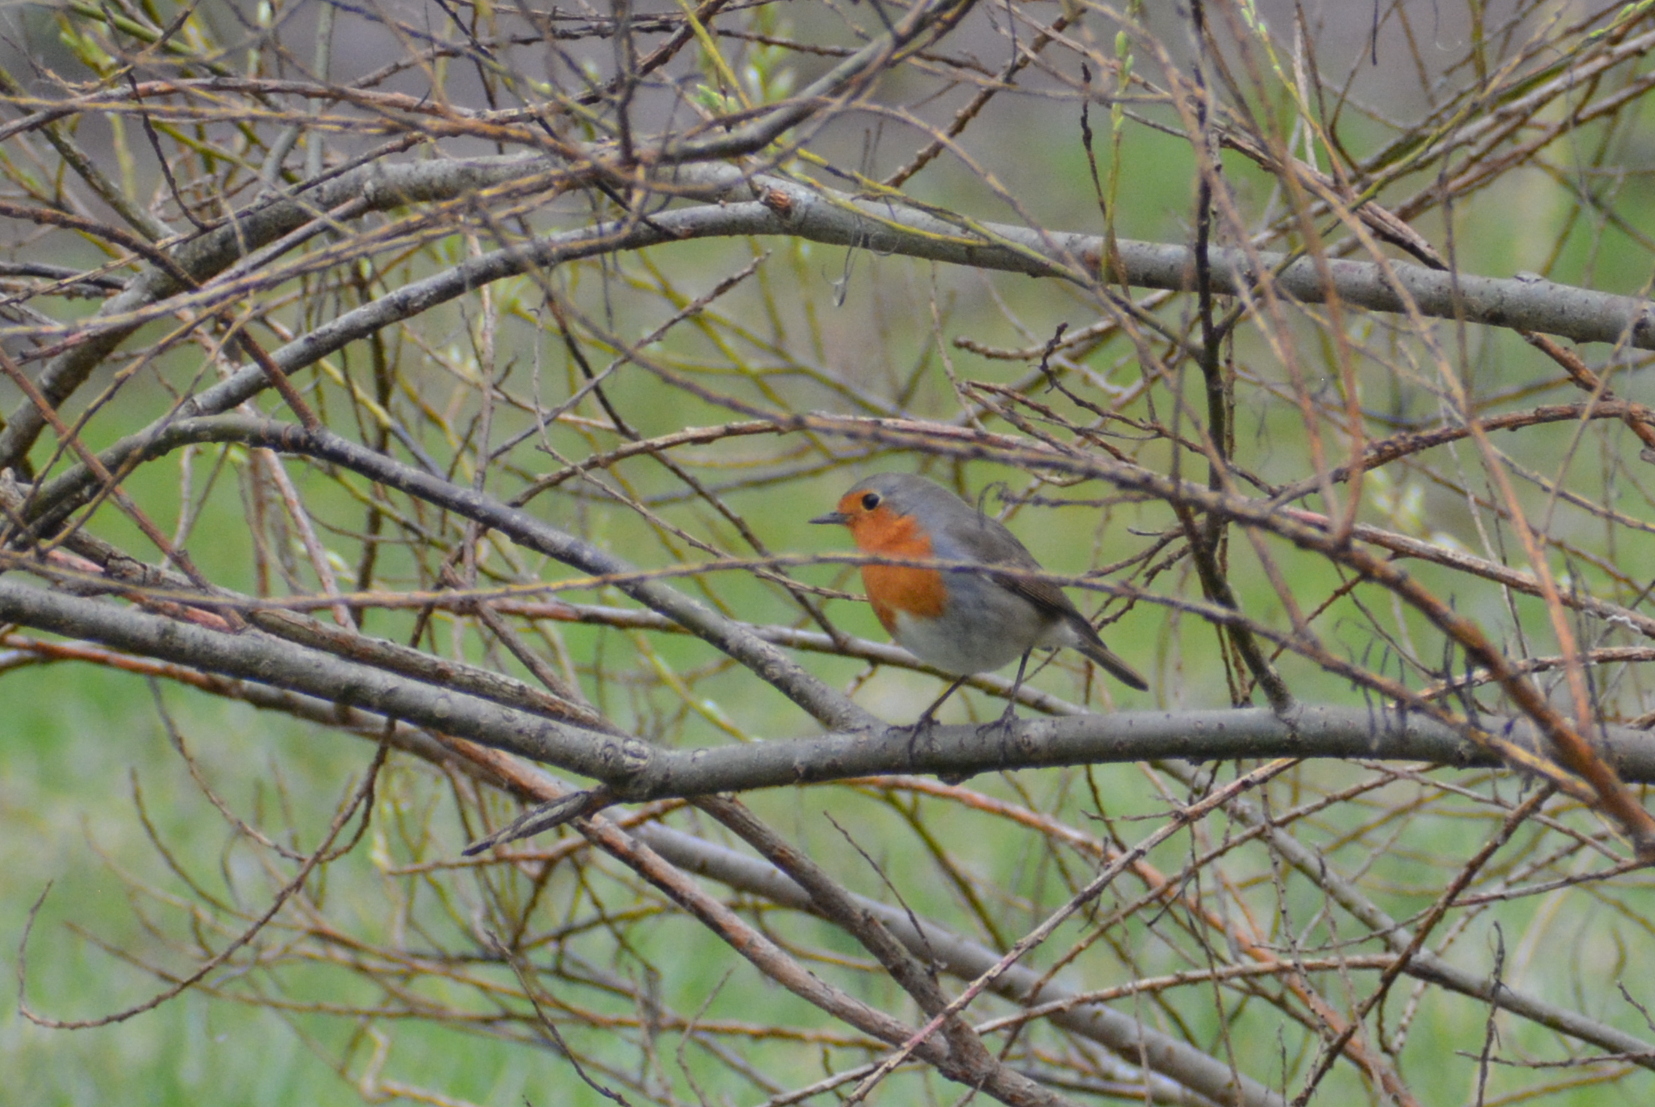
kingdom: Animalia
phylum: Chordata
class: Aves
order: Passeriformes
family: Muscicapidae
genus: Erithacus
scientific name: Erithacus rubecula
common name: European robin
